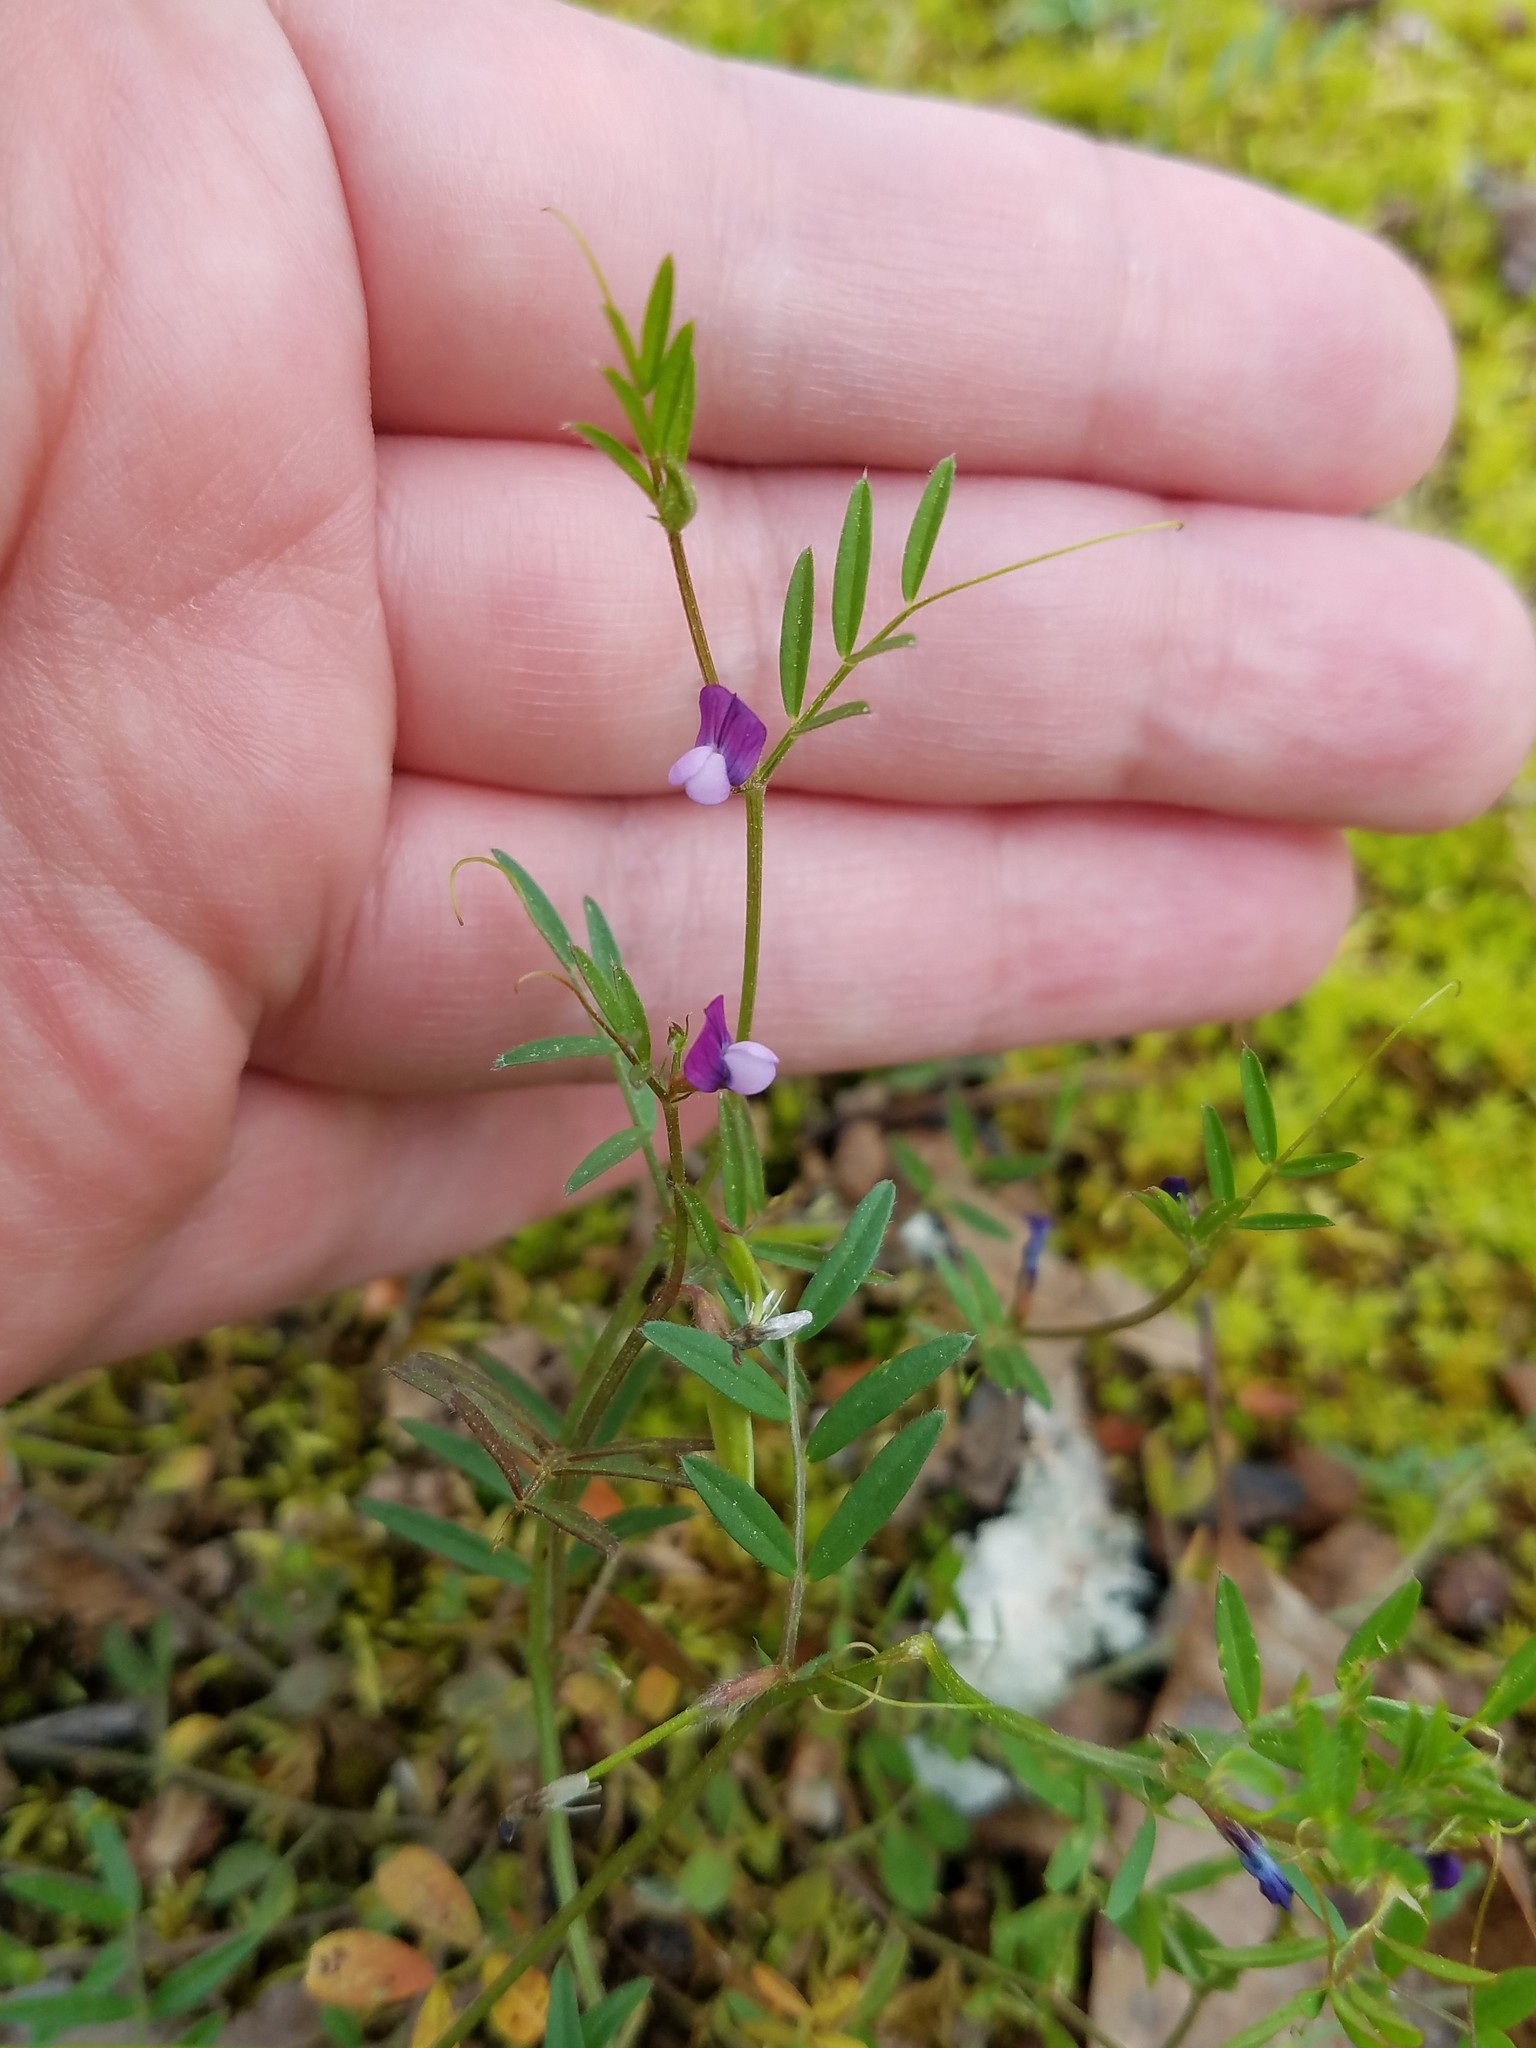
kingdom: Plantae
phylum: Tracheophyta
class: Magnoliopsida
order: Fabales
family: Fabaceae
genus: Vicia
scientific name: Vicia lathyroides
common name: Spring vetch
